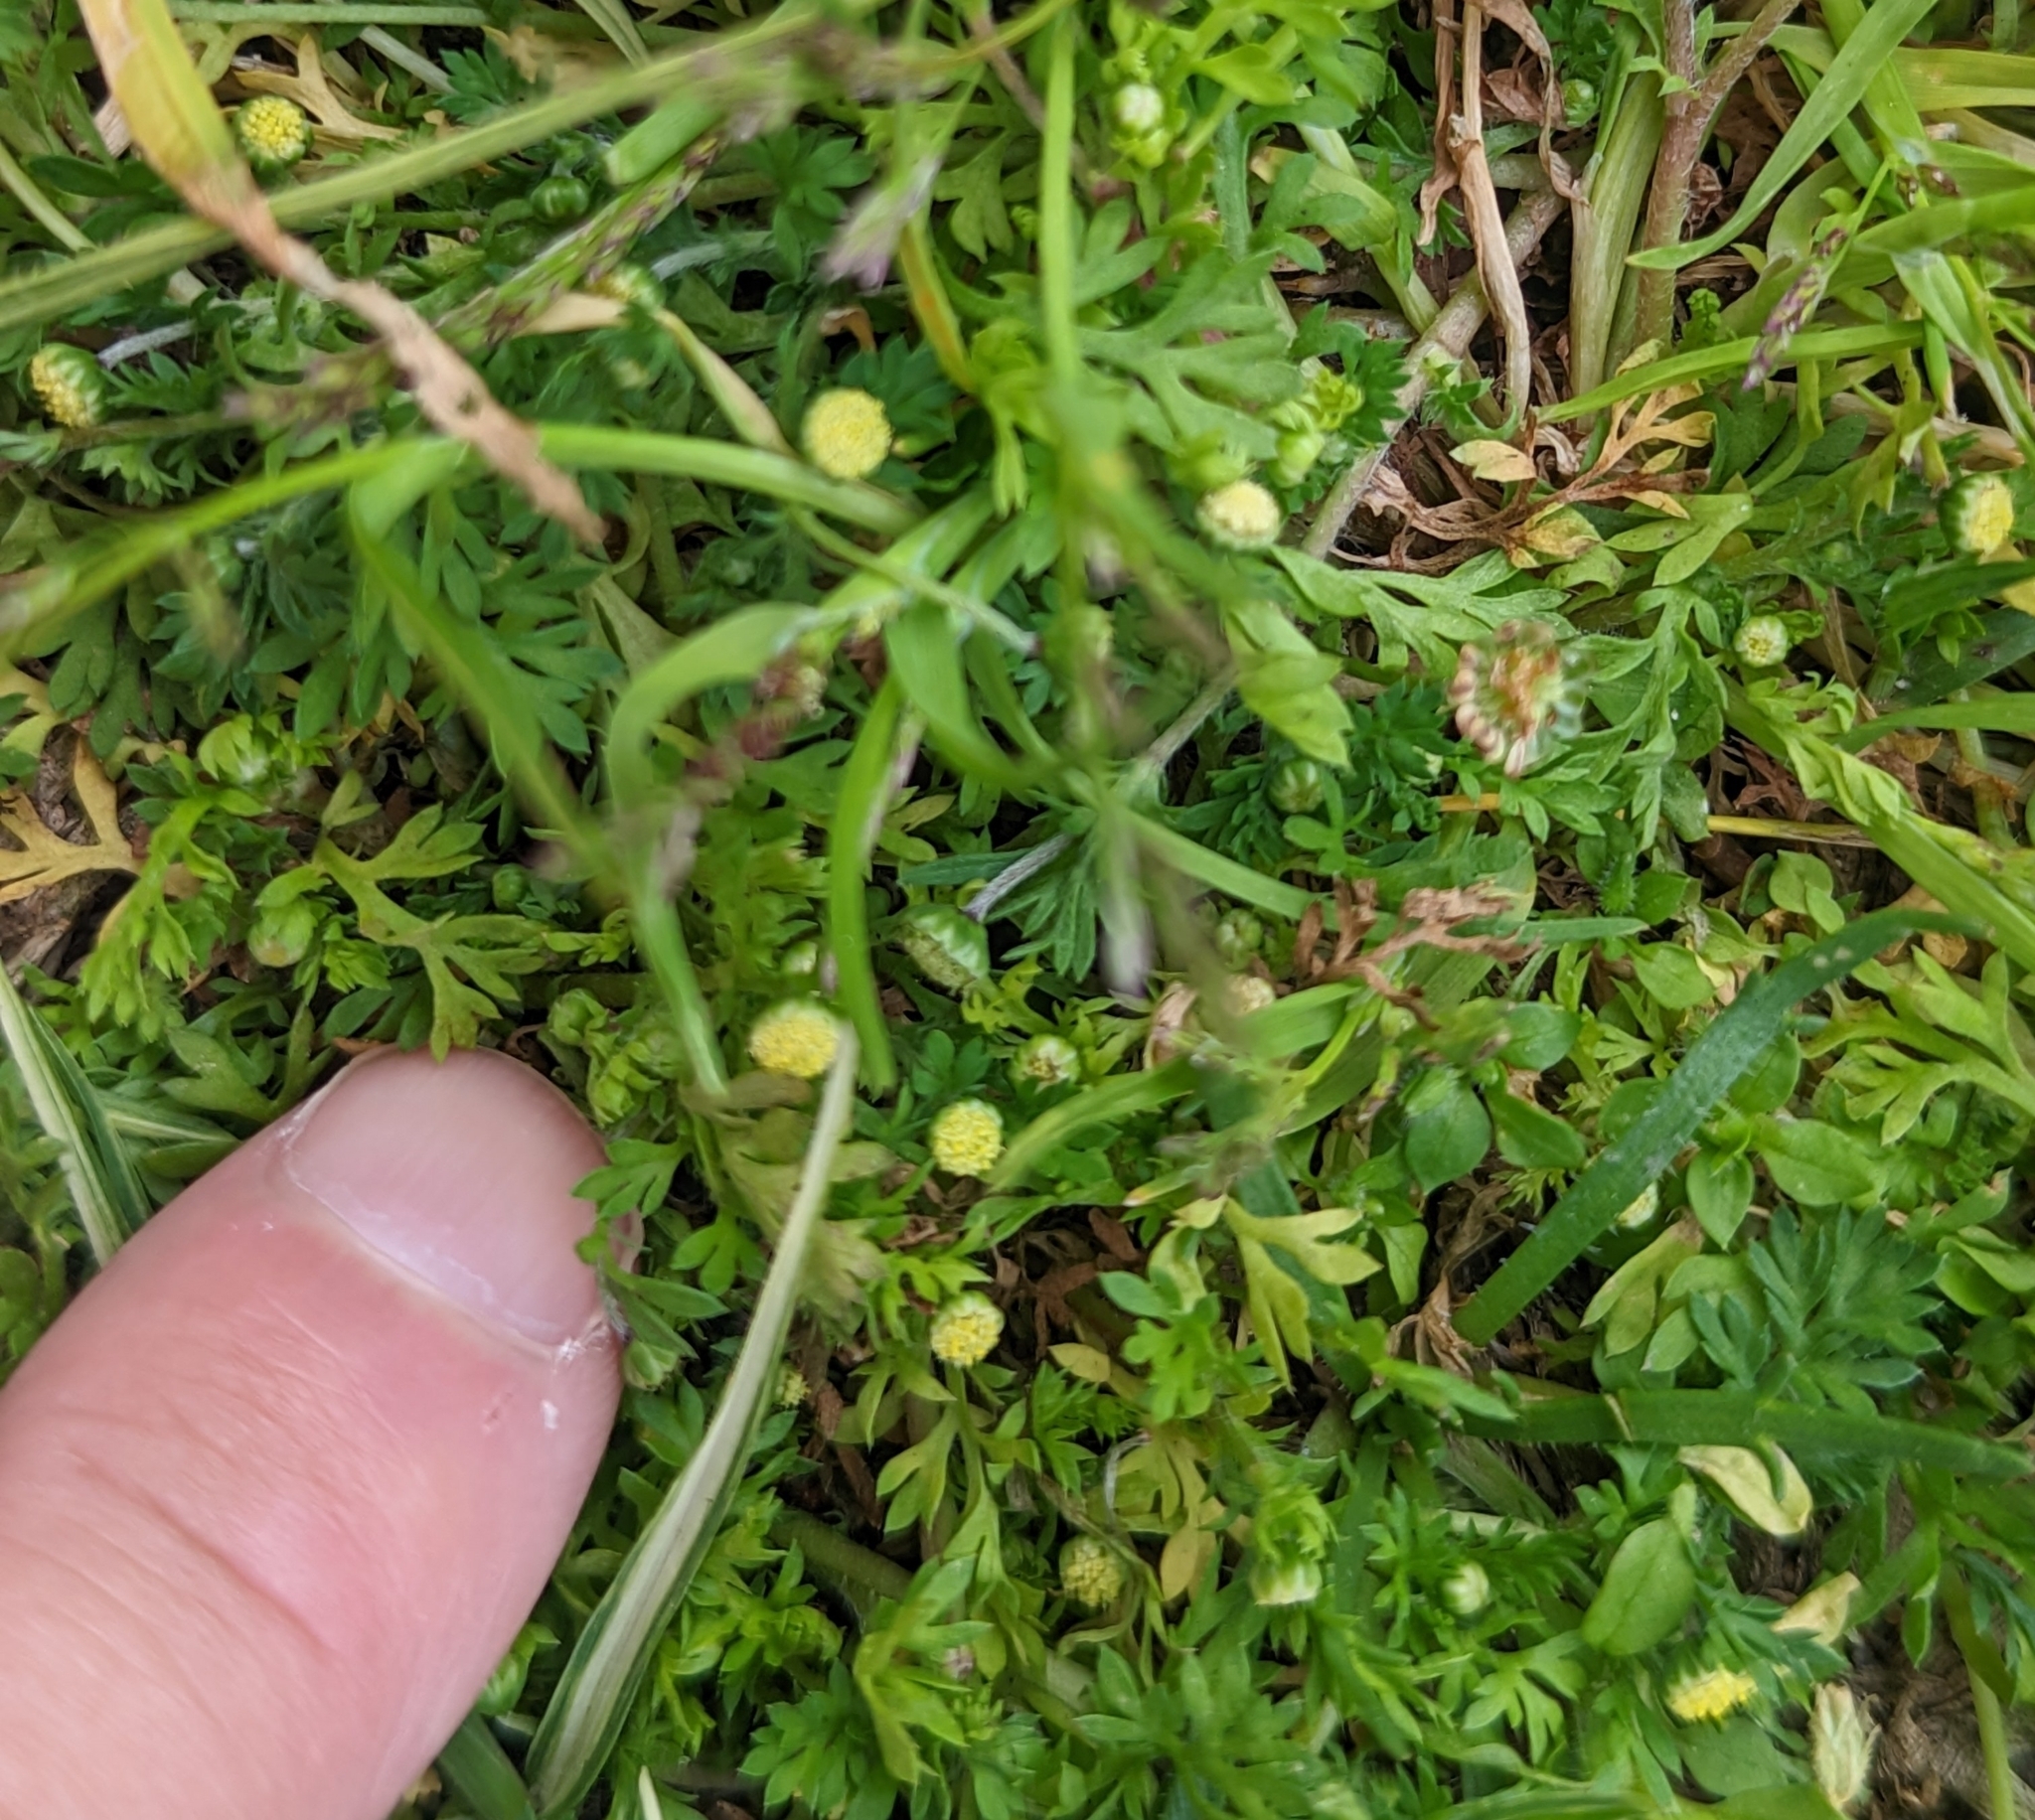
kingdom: Plantae
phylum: Tracheophyta
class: Magnoliopsida
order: Asterales
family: Asteraceae
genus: Cotula
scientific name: Cotula australis
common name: Australian waterbuttons
